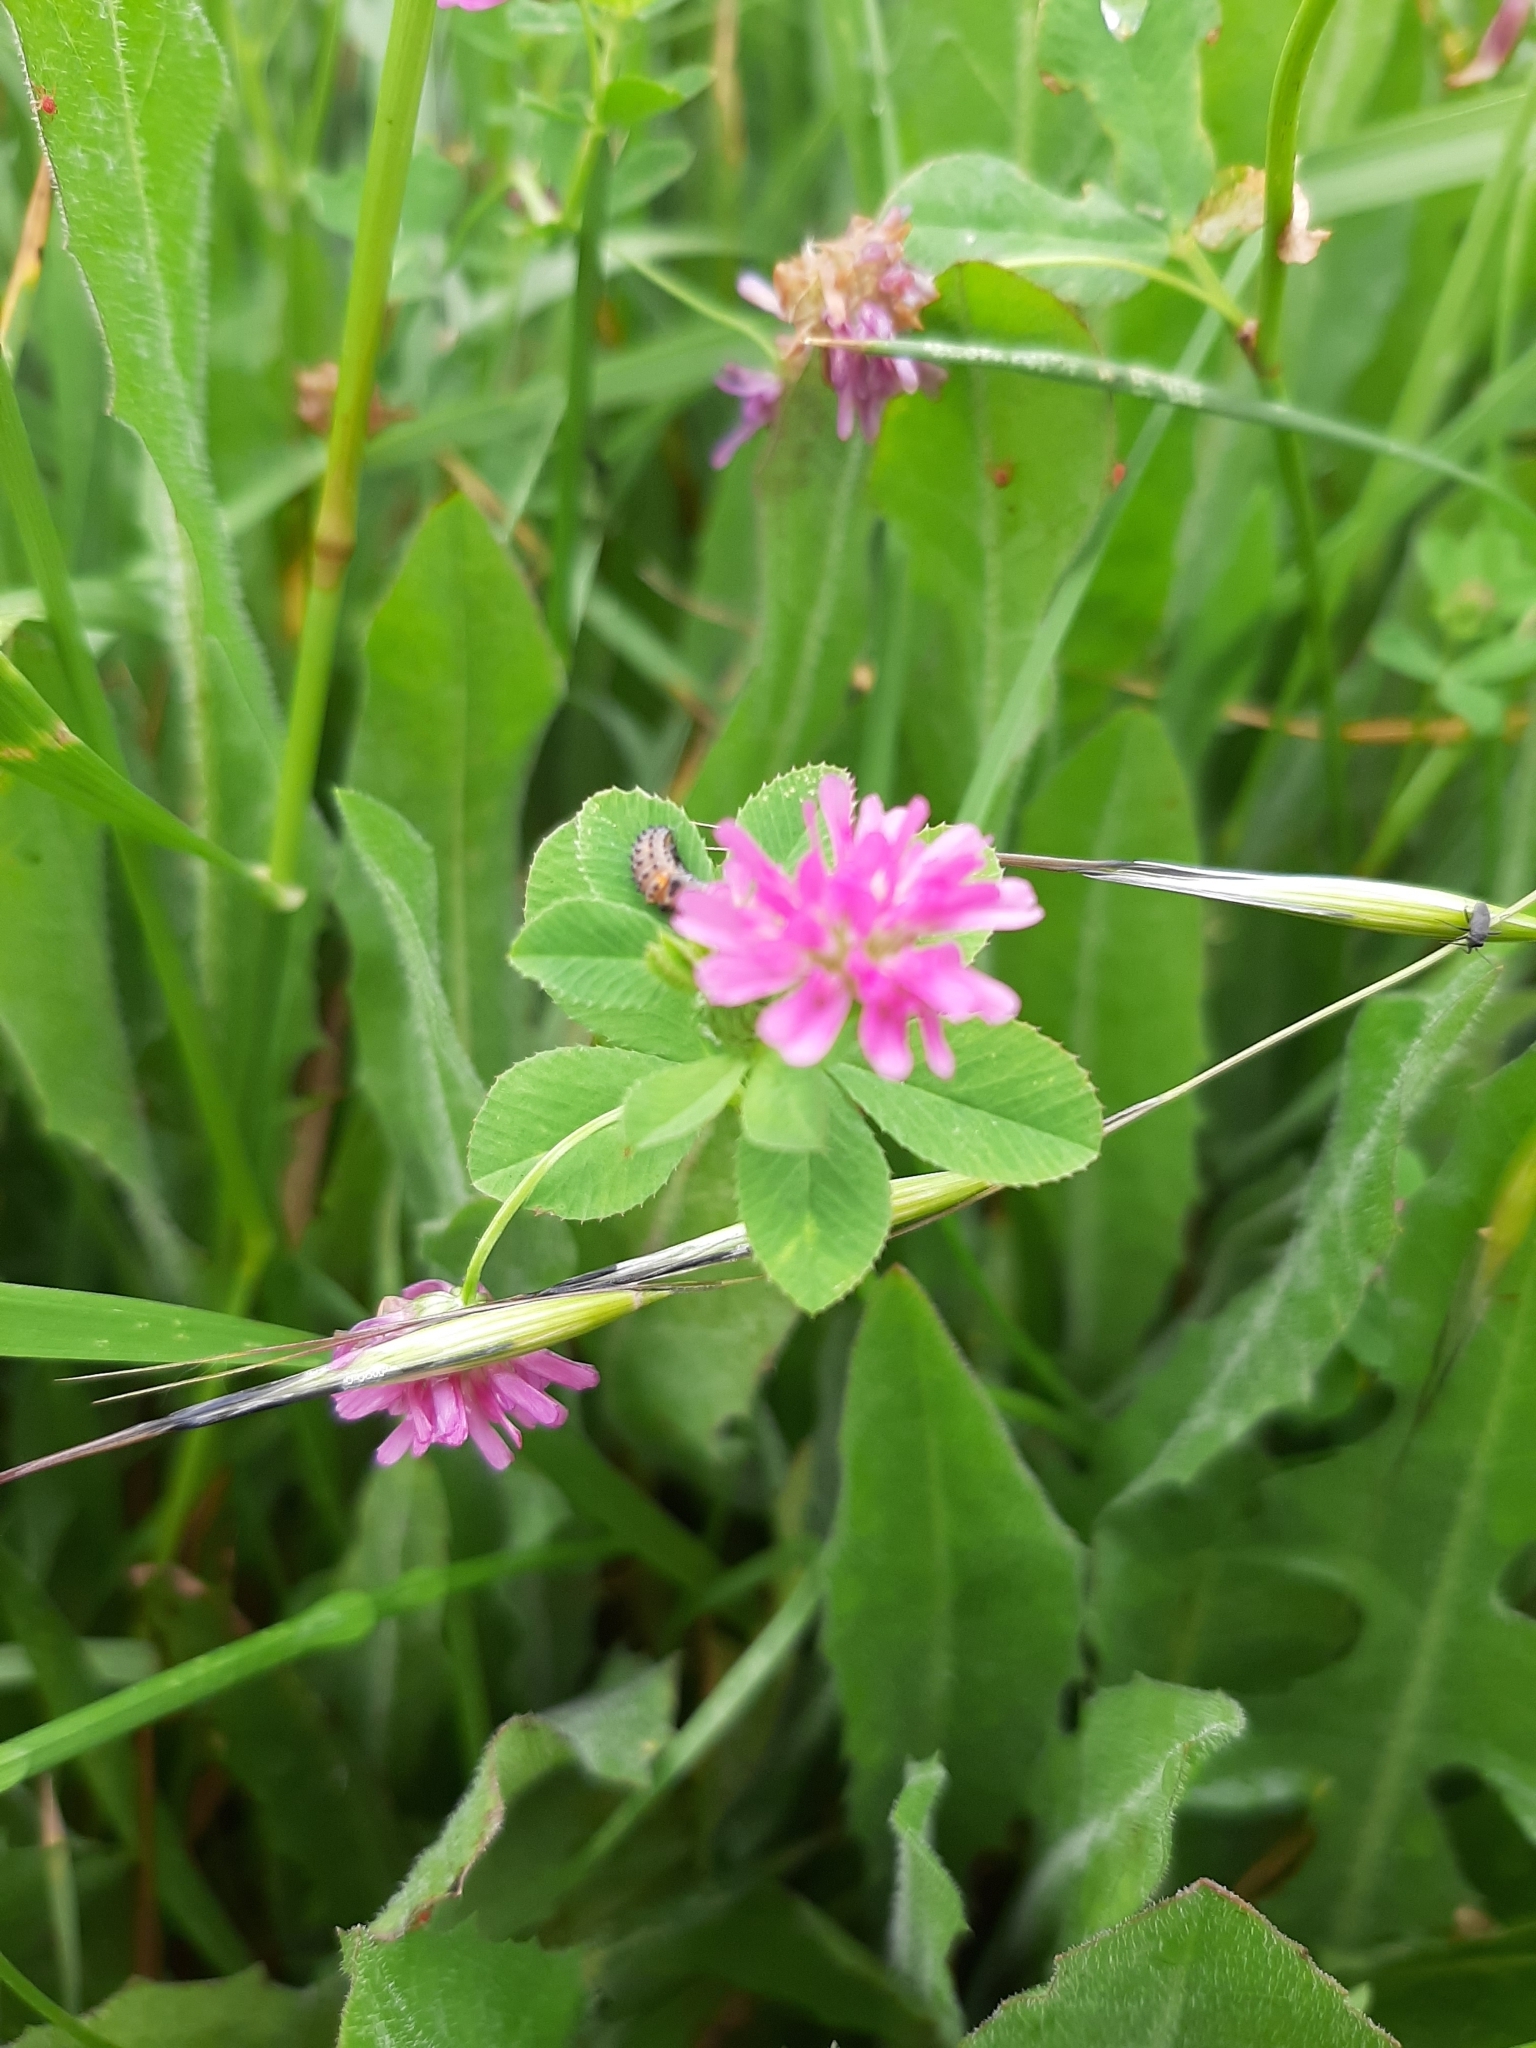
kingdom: Plantae
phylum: Tracheophyta
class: Magnoliopsida
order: Fabales
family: Fabaceae
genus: Trifolium
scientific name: Trifolium resupinatum
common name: Reversed clover
